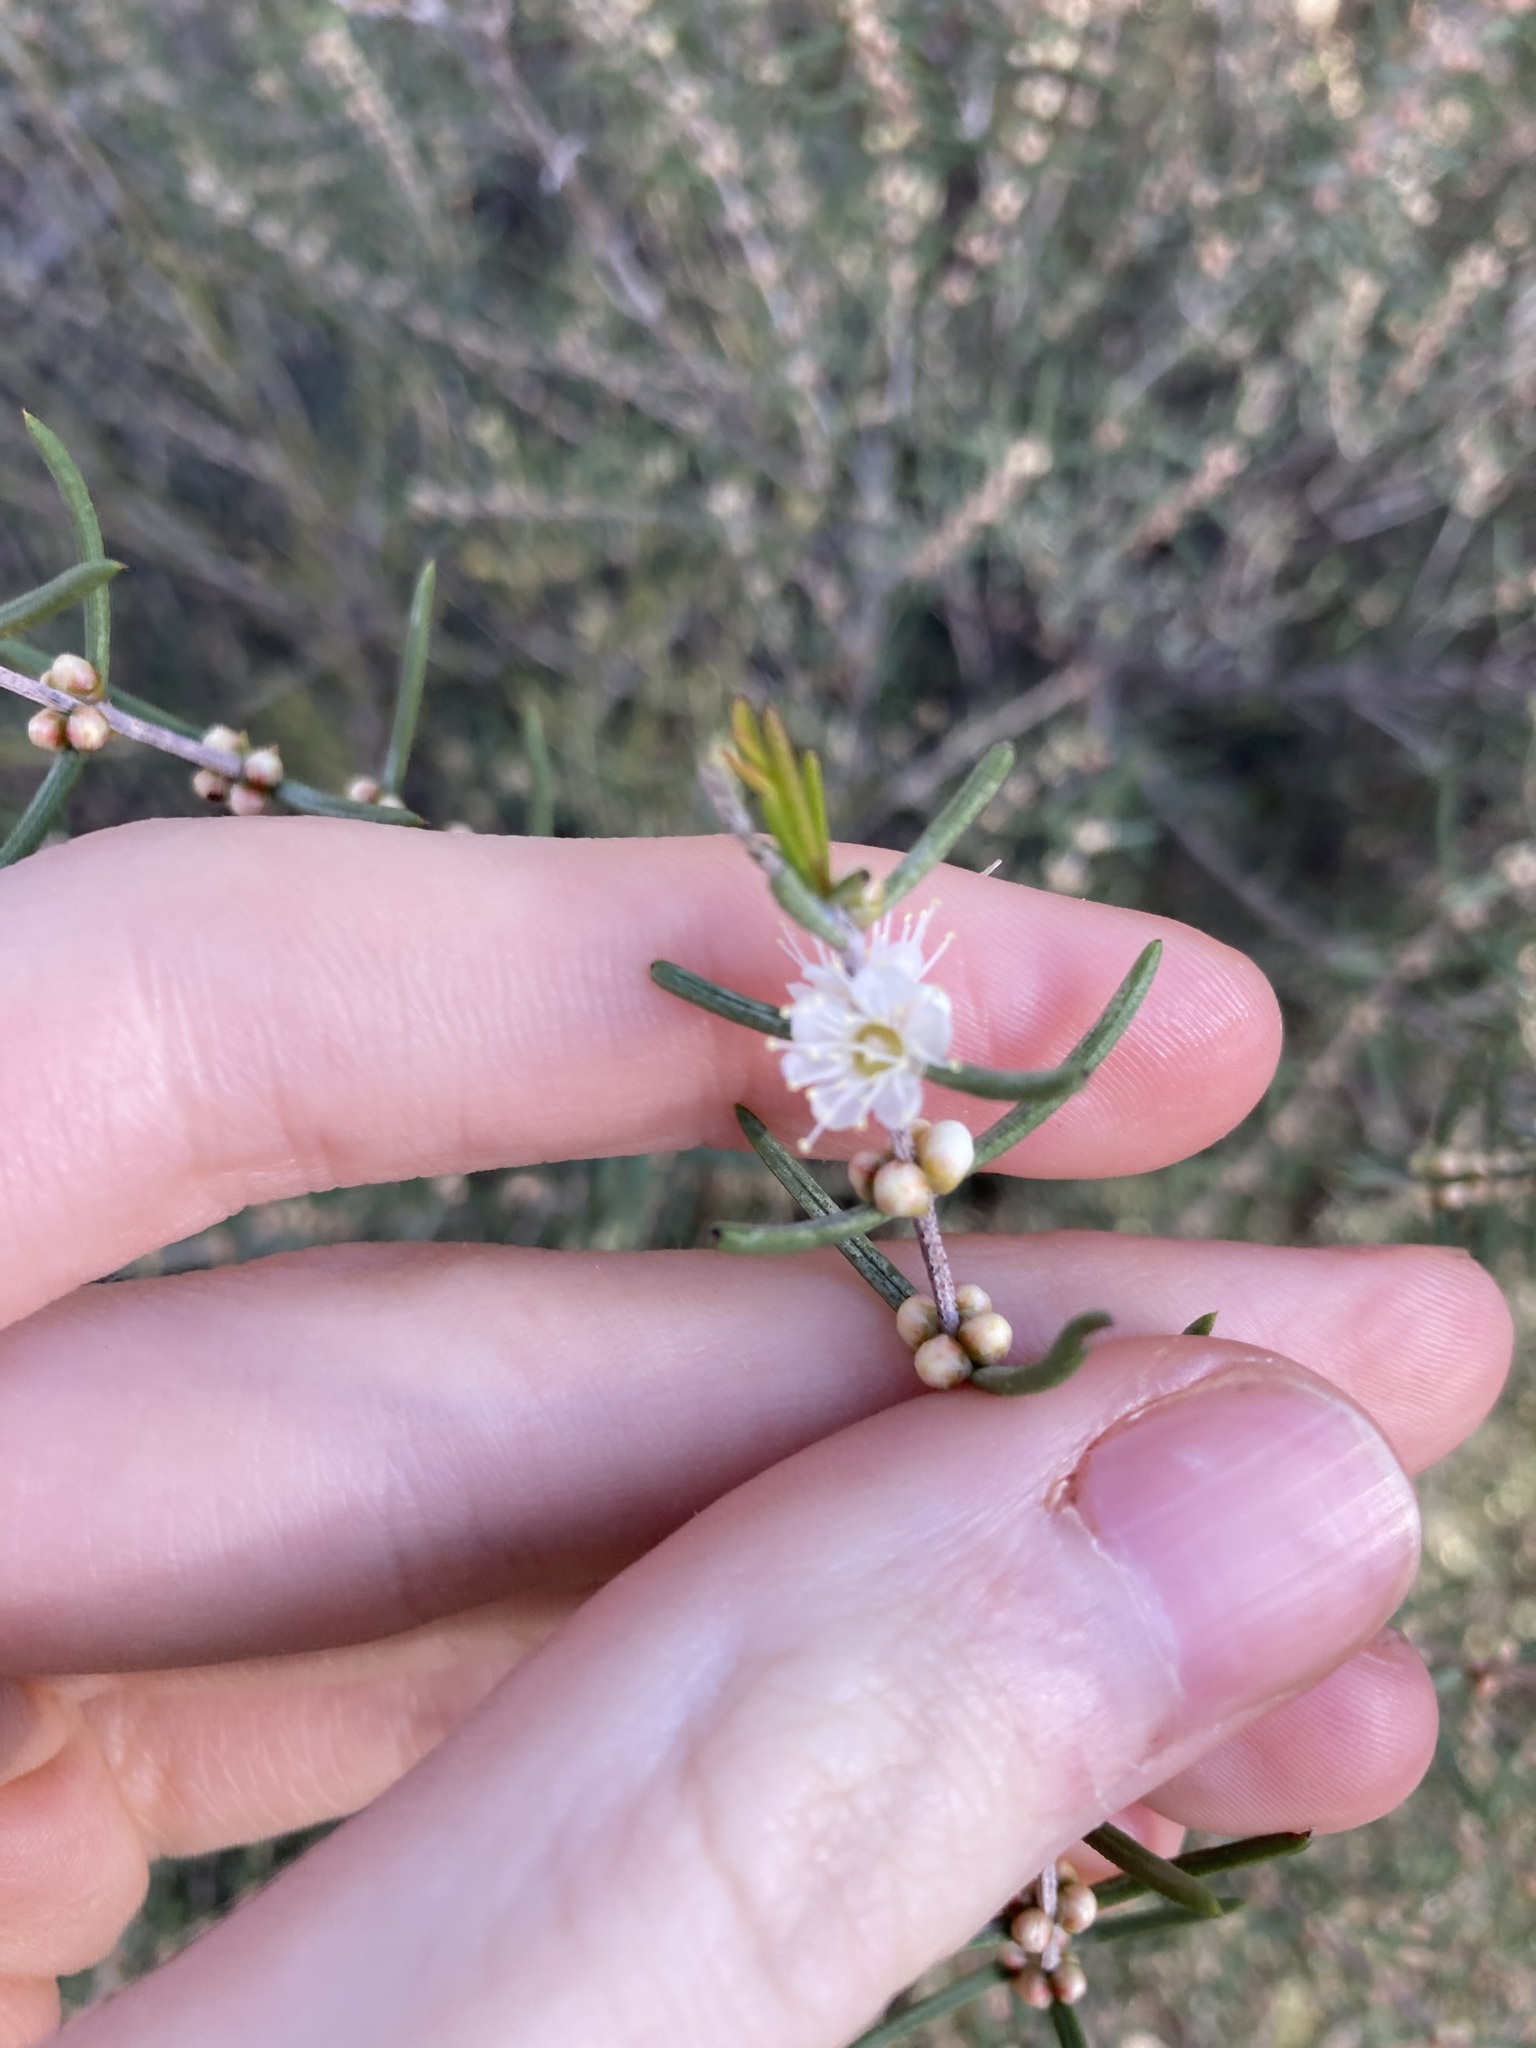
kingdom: Plantae
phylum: Tracheophyta
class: Magnoliopsida
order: Myrtales
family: Myrtaceae
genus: Hypocalymma
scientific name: Hypocalymma angustifolium
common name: White myrtle
